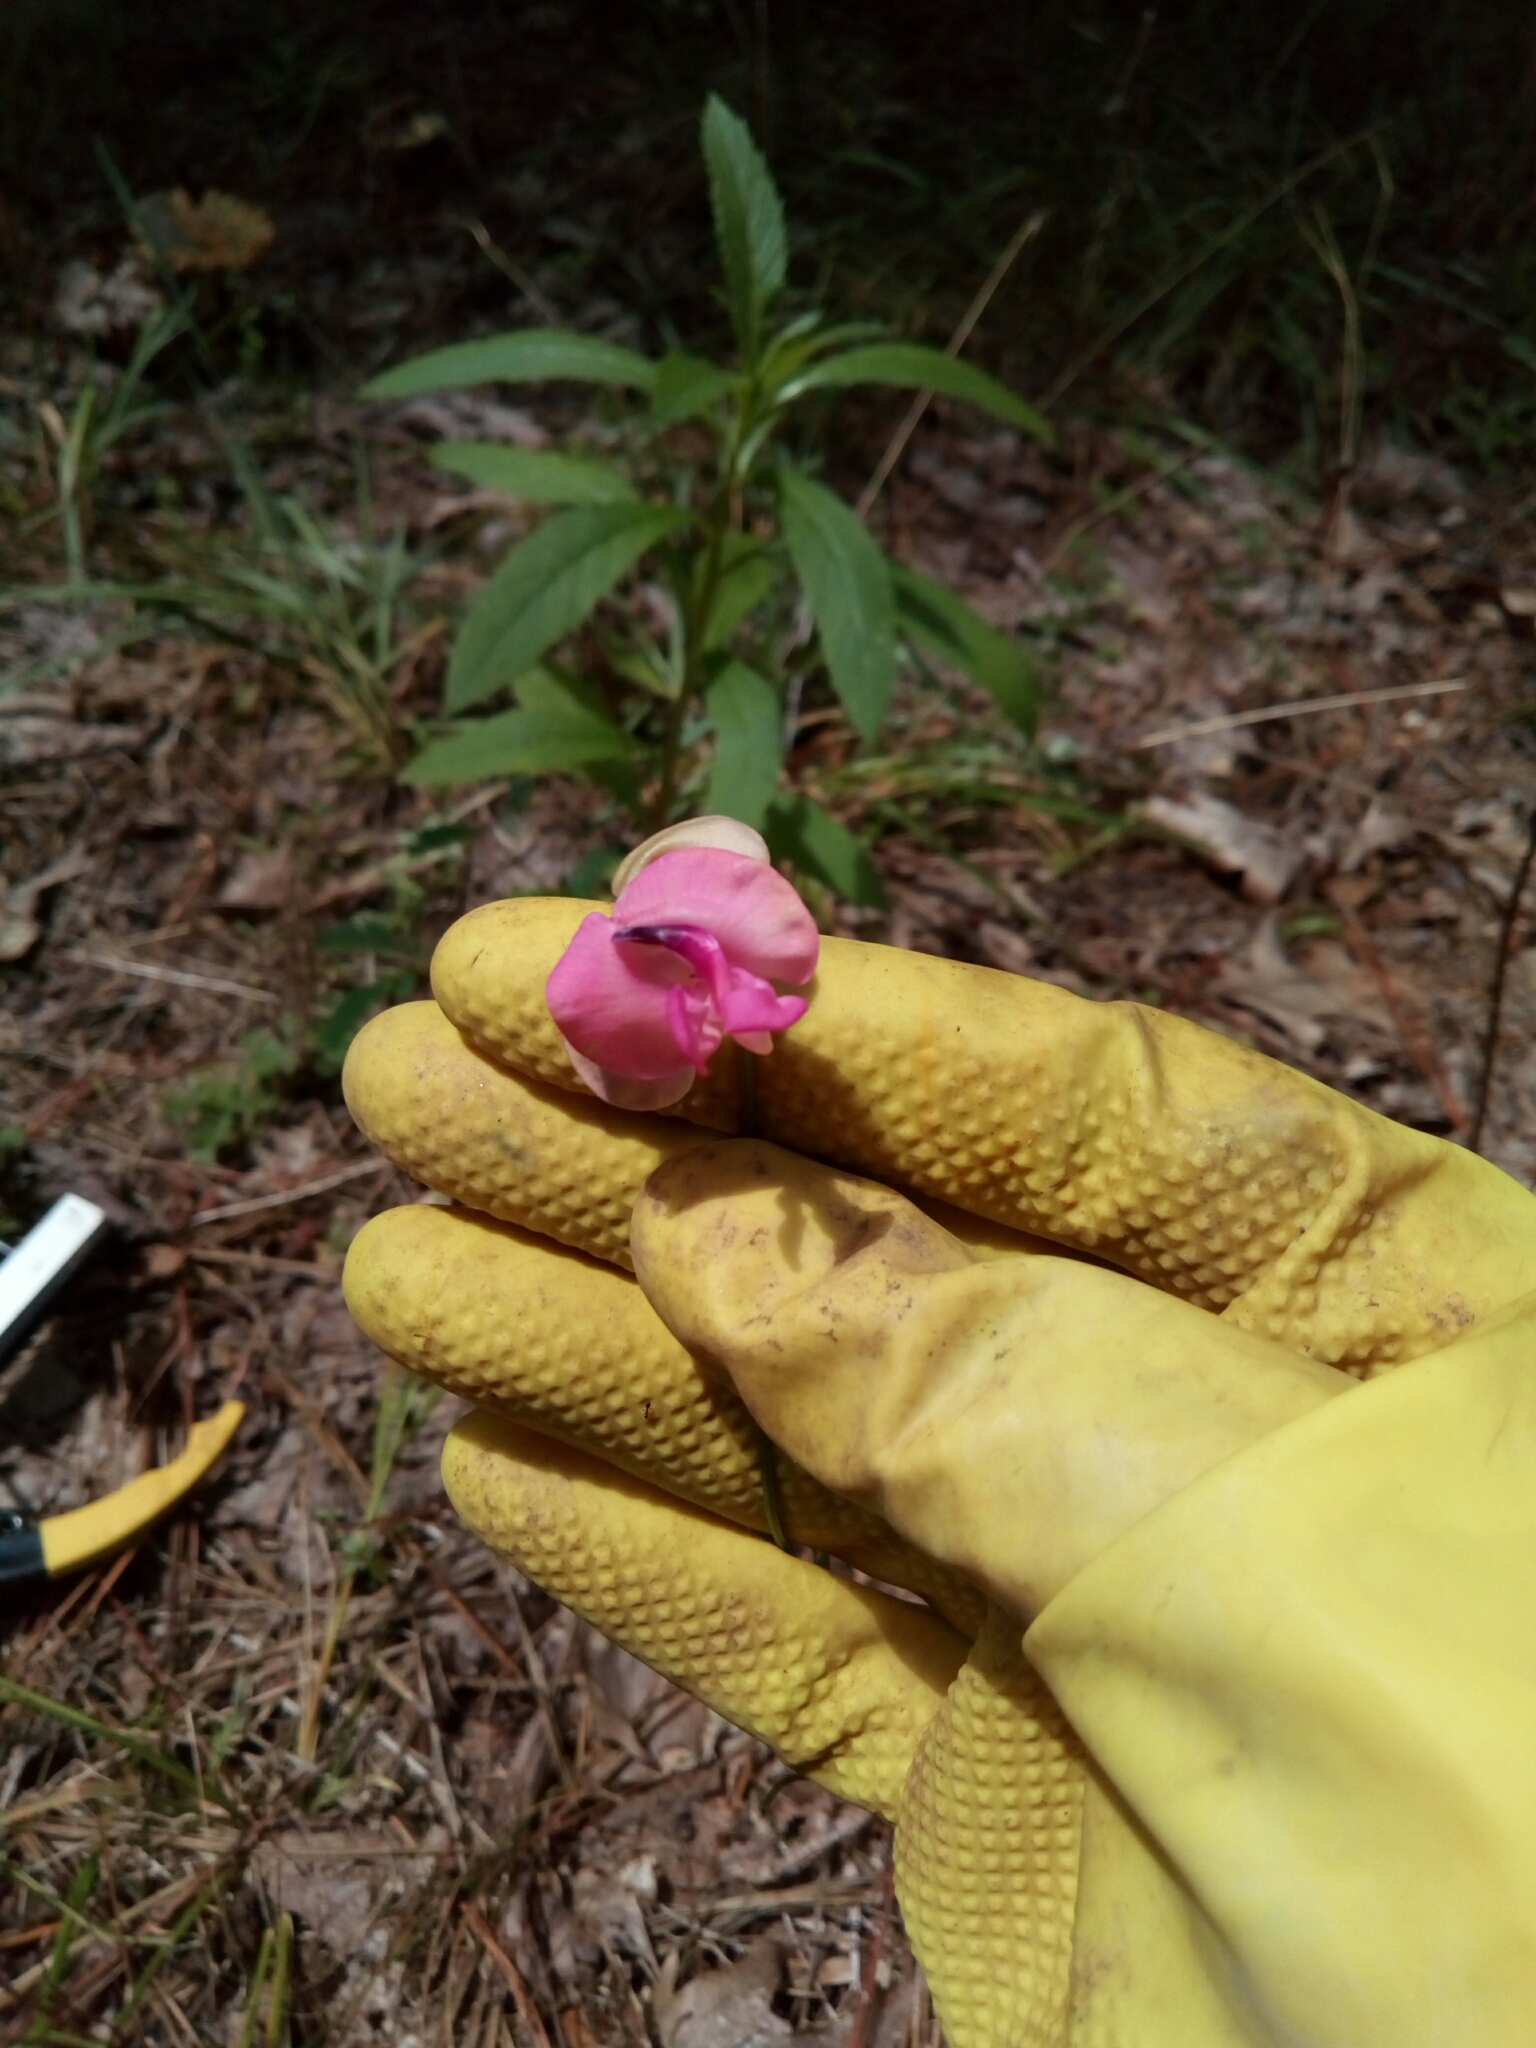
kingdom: Plantae
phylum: Tracheophyta
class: Magnoliopsida
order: Fabales
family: Fabaceae
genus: Strophostyles
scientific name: Strophostyles umbellata
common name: Perennial wild bean
